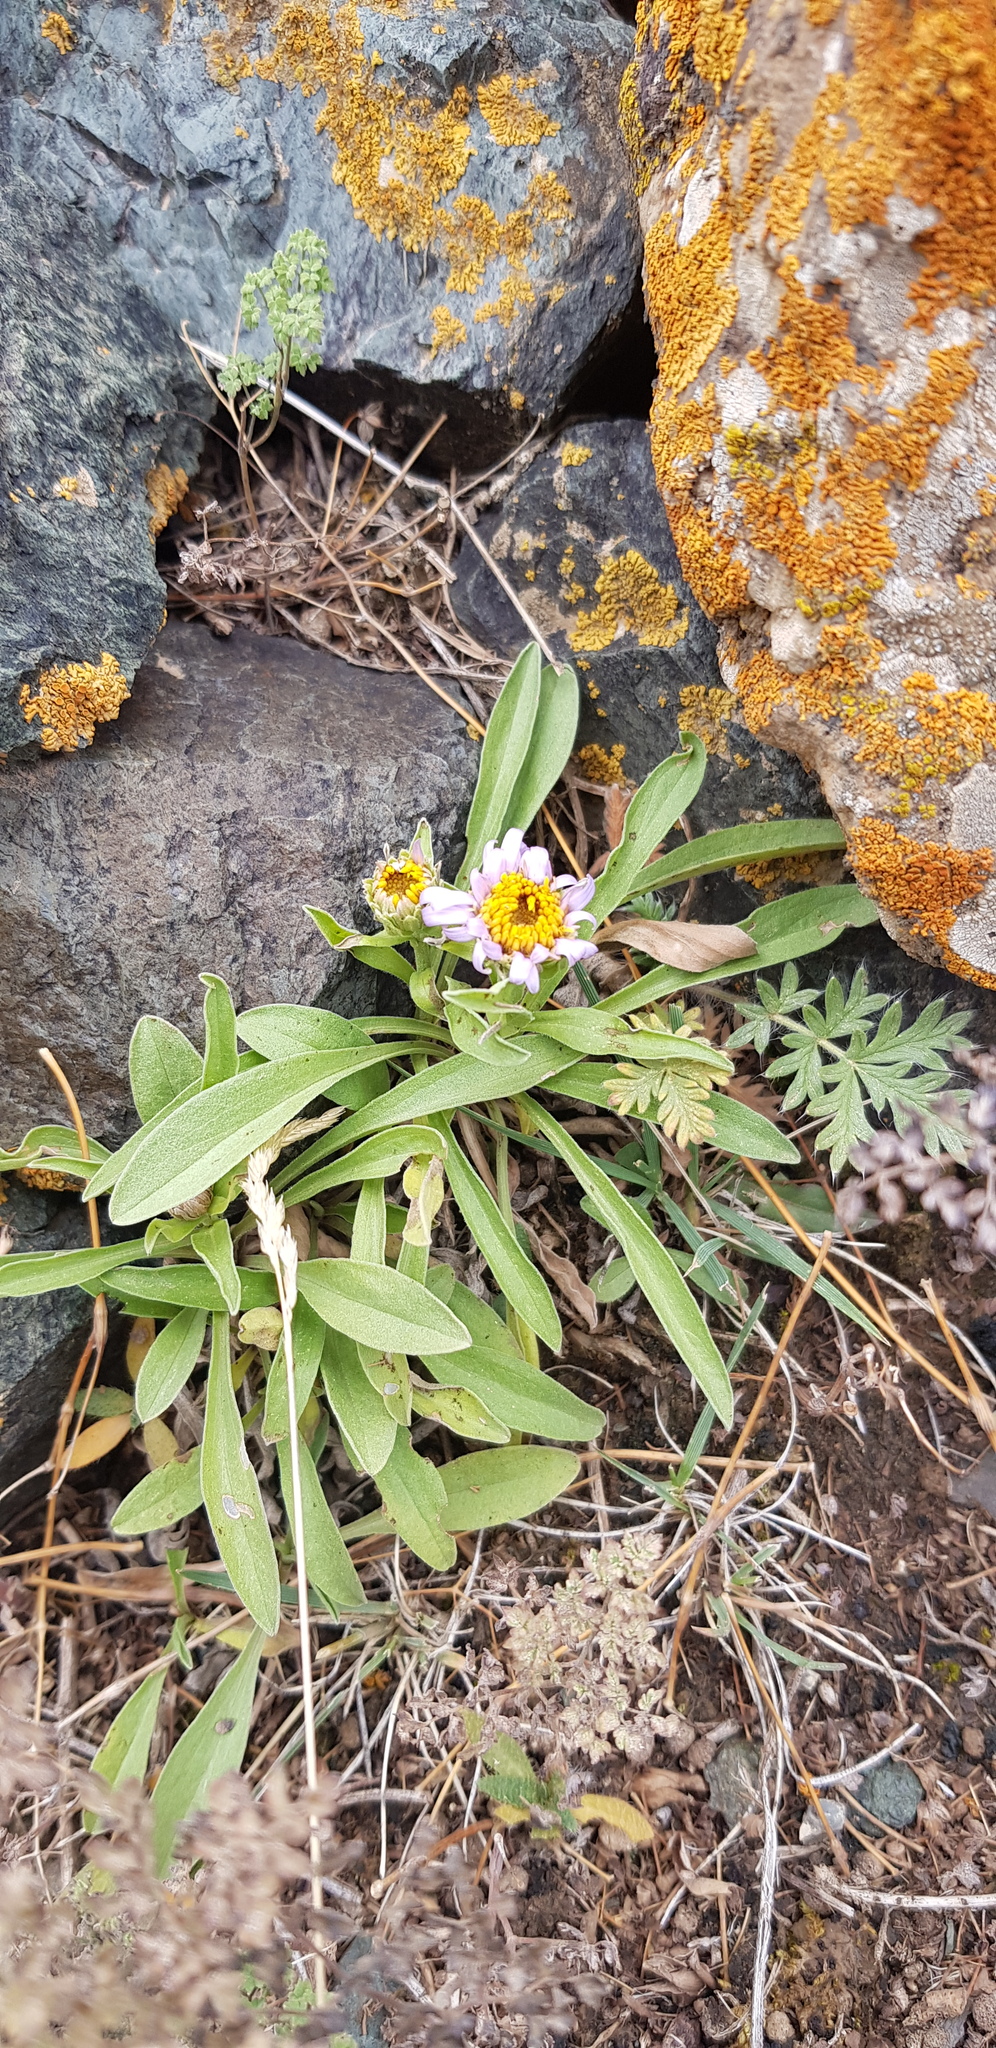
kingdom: Plantae
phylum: Tracheophyta
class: Magnoliopsida
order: Asterales
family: Asteraceae
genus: Aster
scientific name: Aster alpinus
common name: Alpine aster
